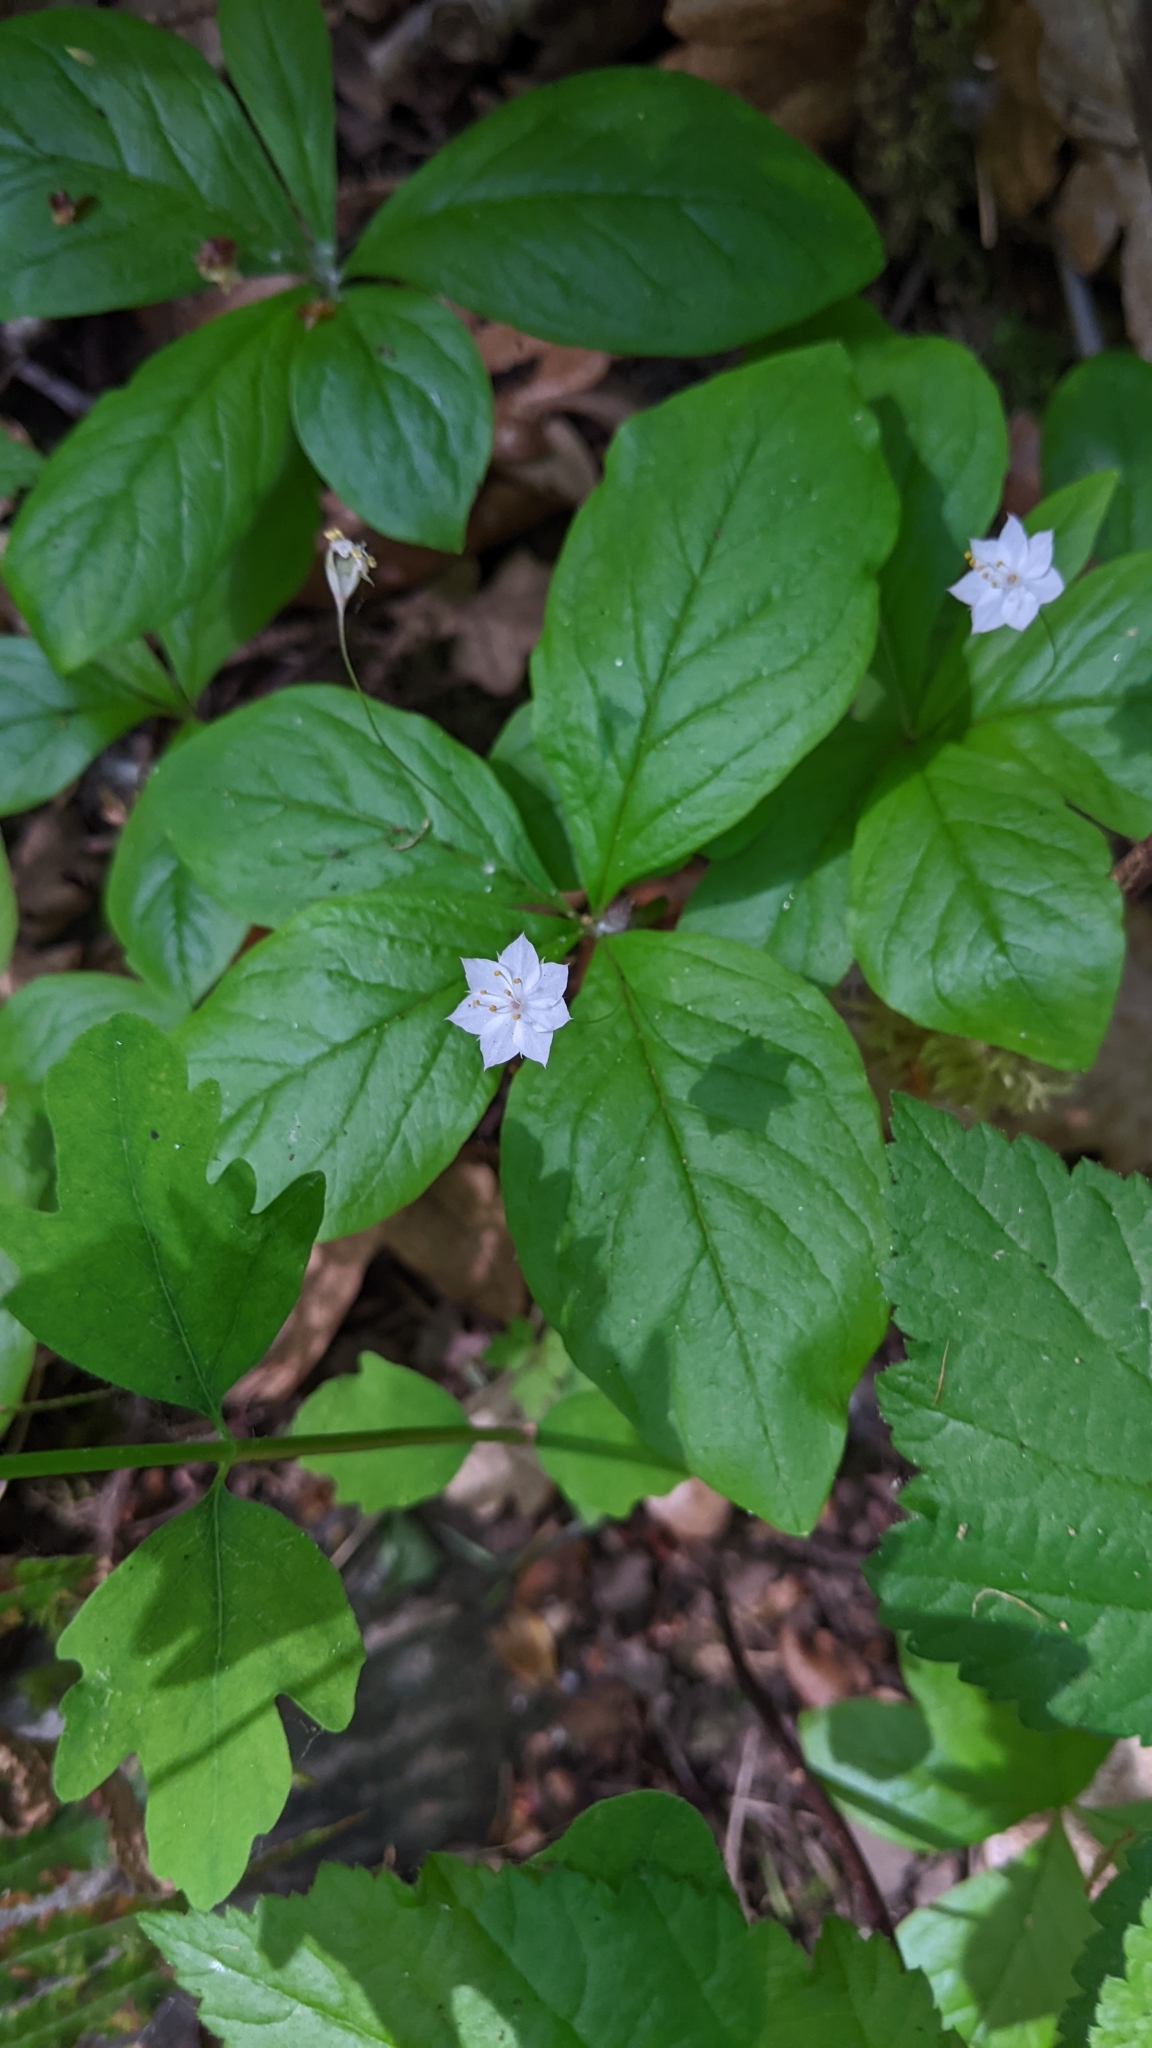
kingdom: Plantae
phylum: Tracheophyta
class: Magnoliopsida
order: Ericales
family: Primulaceae
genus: Lysimachia
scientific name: Lysimachia latifolia
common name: Pacific starflower
